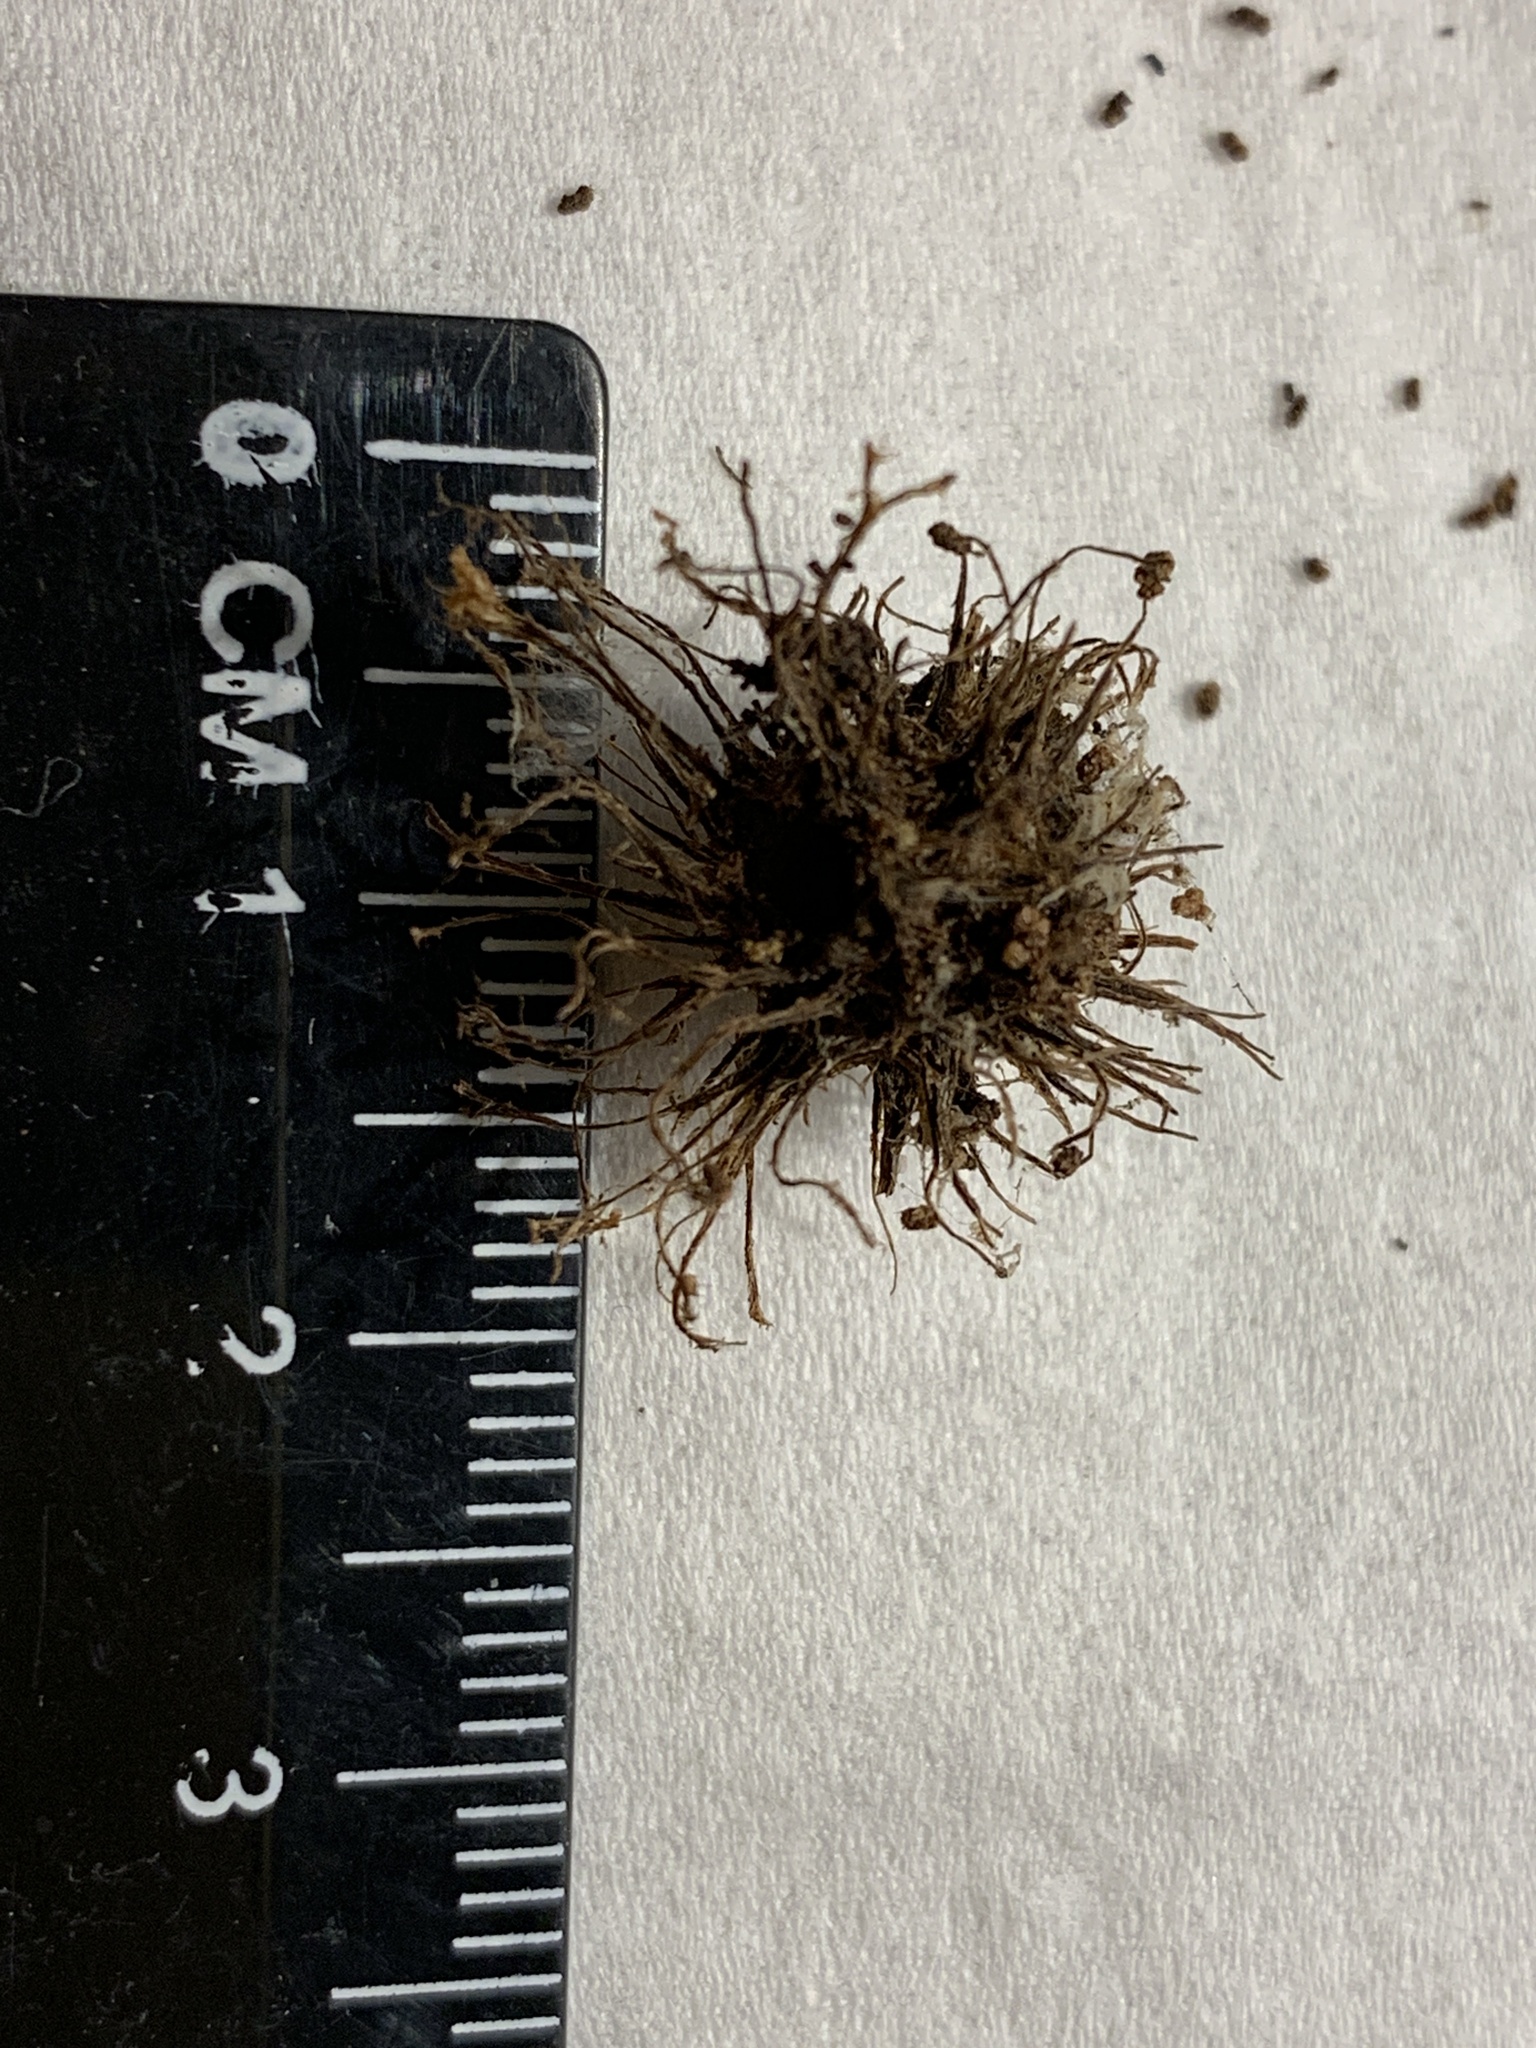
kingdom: Animalia
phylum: Arthropoda
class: Insecta
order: Hymenoptera
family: Cynipidae
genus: Amphibolips
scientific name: Amphibolips
